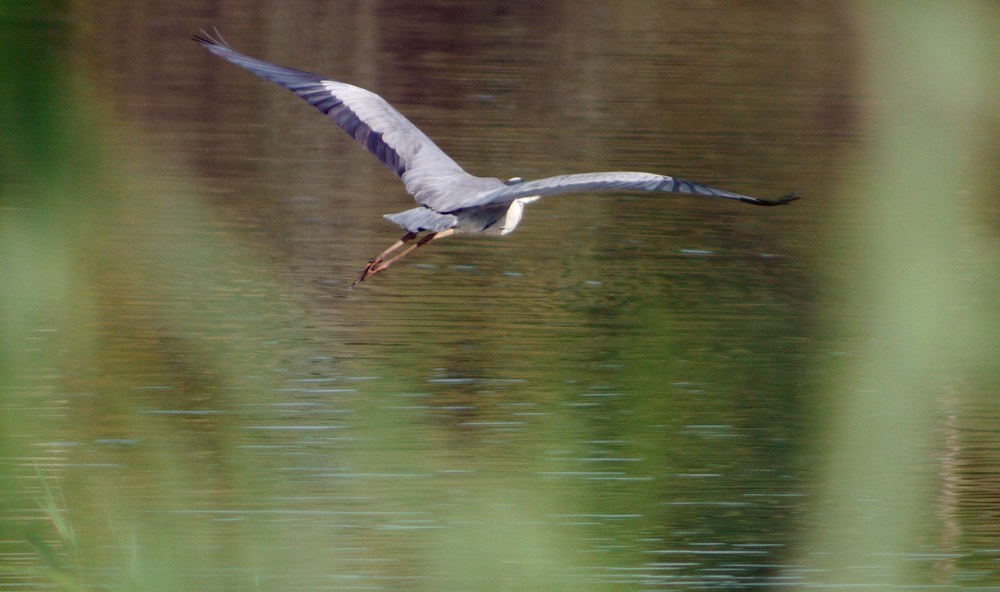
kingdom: Animalia
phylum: Chordata
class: Aves
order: Pelecaniformes
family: Ardeidae
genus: Ardea
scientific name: Ardea cinerea
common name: Grey heron
